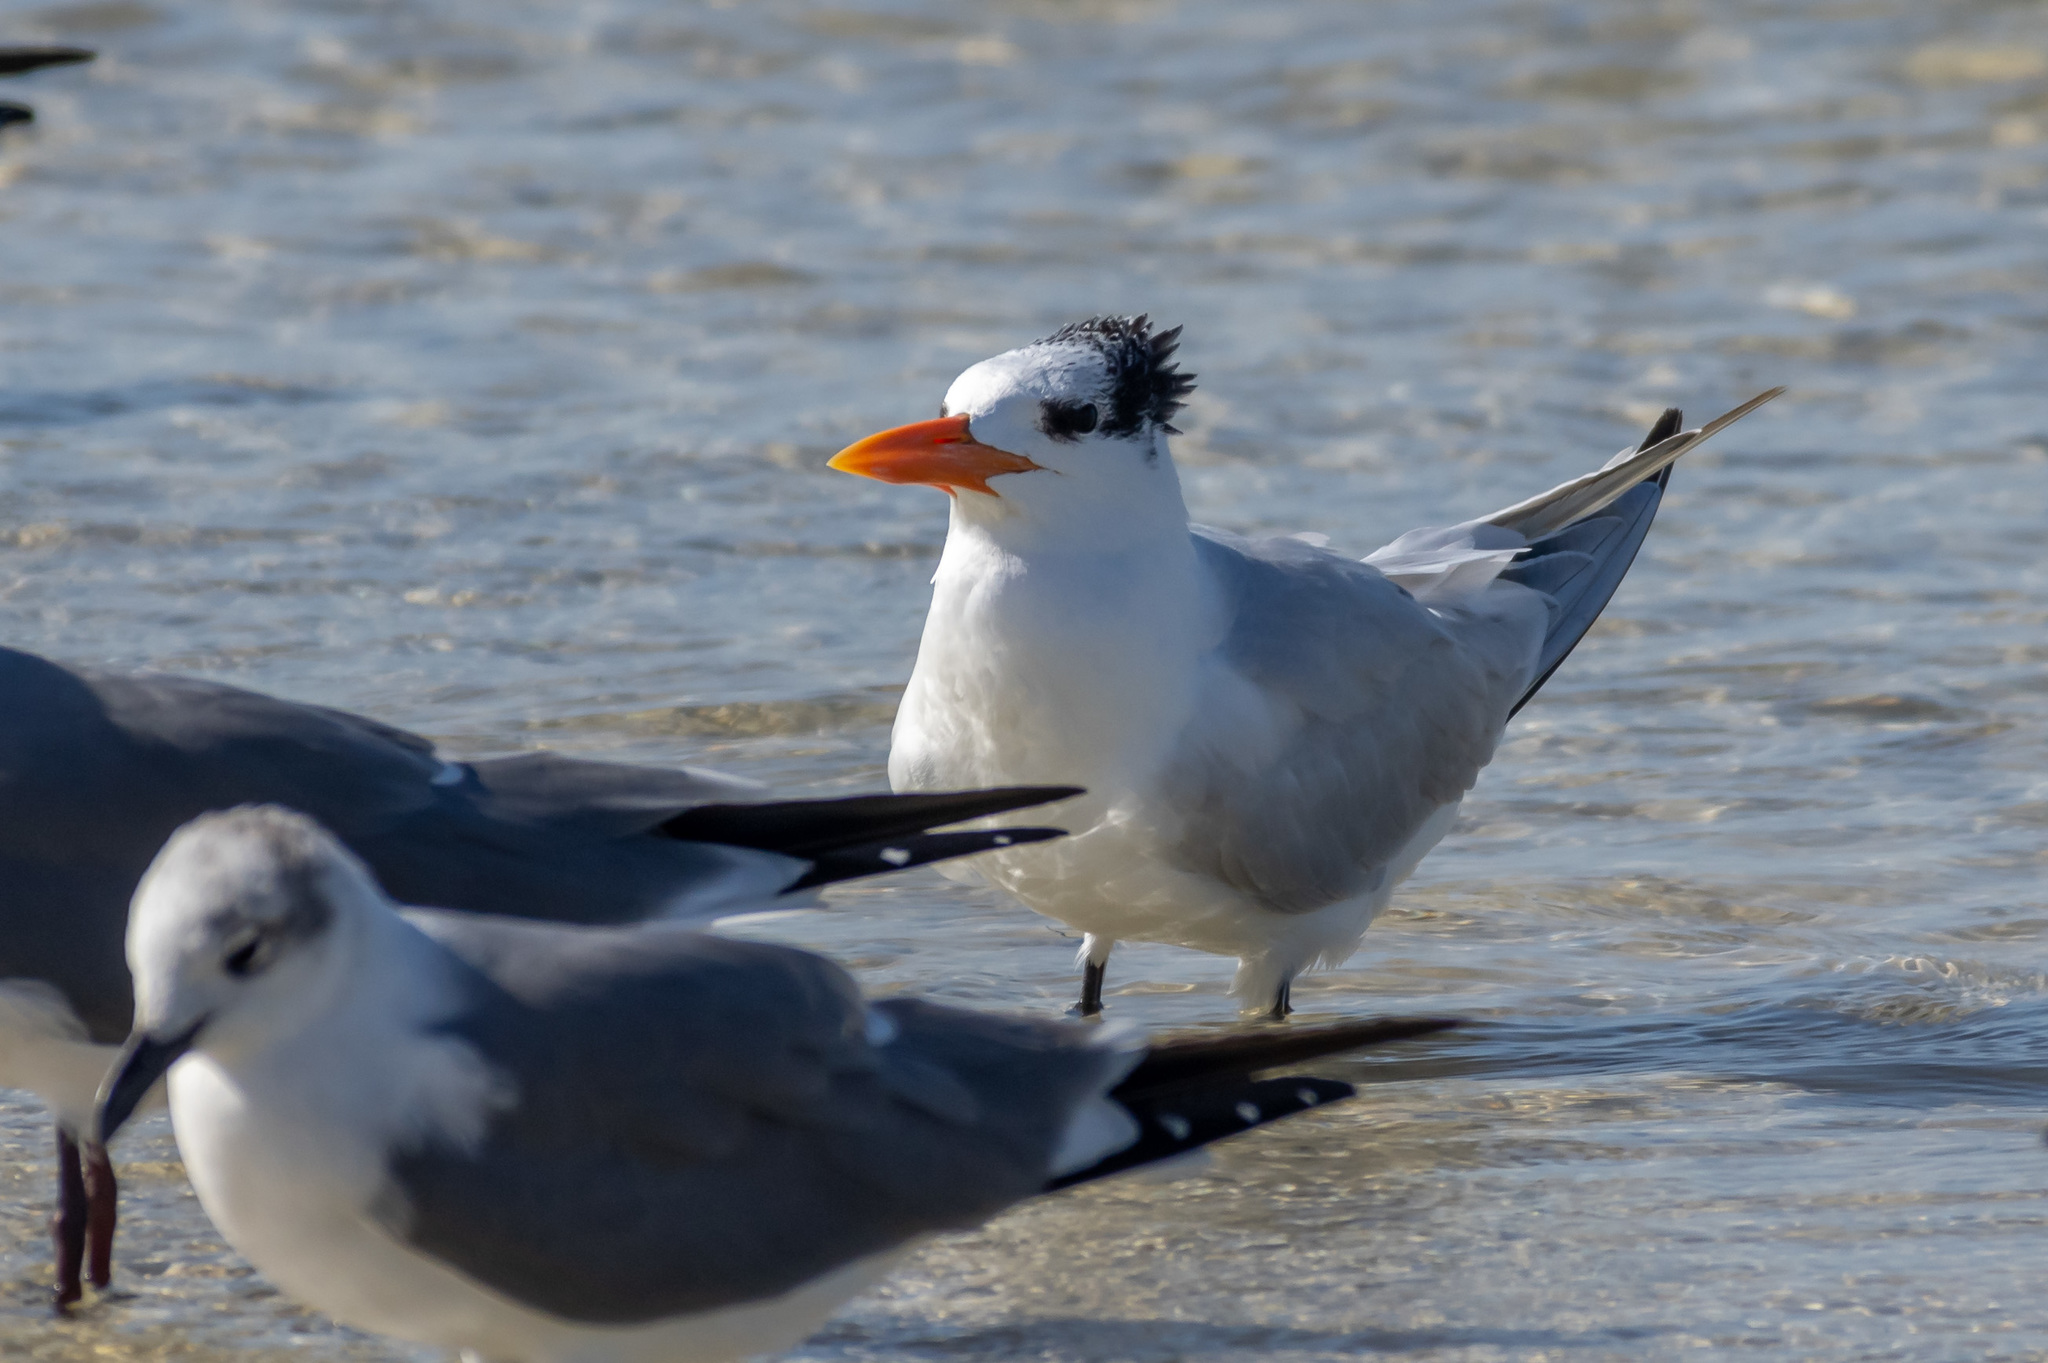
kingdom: Animalia
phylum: Chordata
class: Aves
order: Charadriiformes
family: Laridae
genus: Thalasseus
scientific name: Thalasseus maximus
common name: Royal tern
